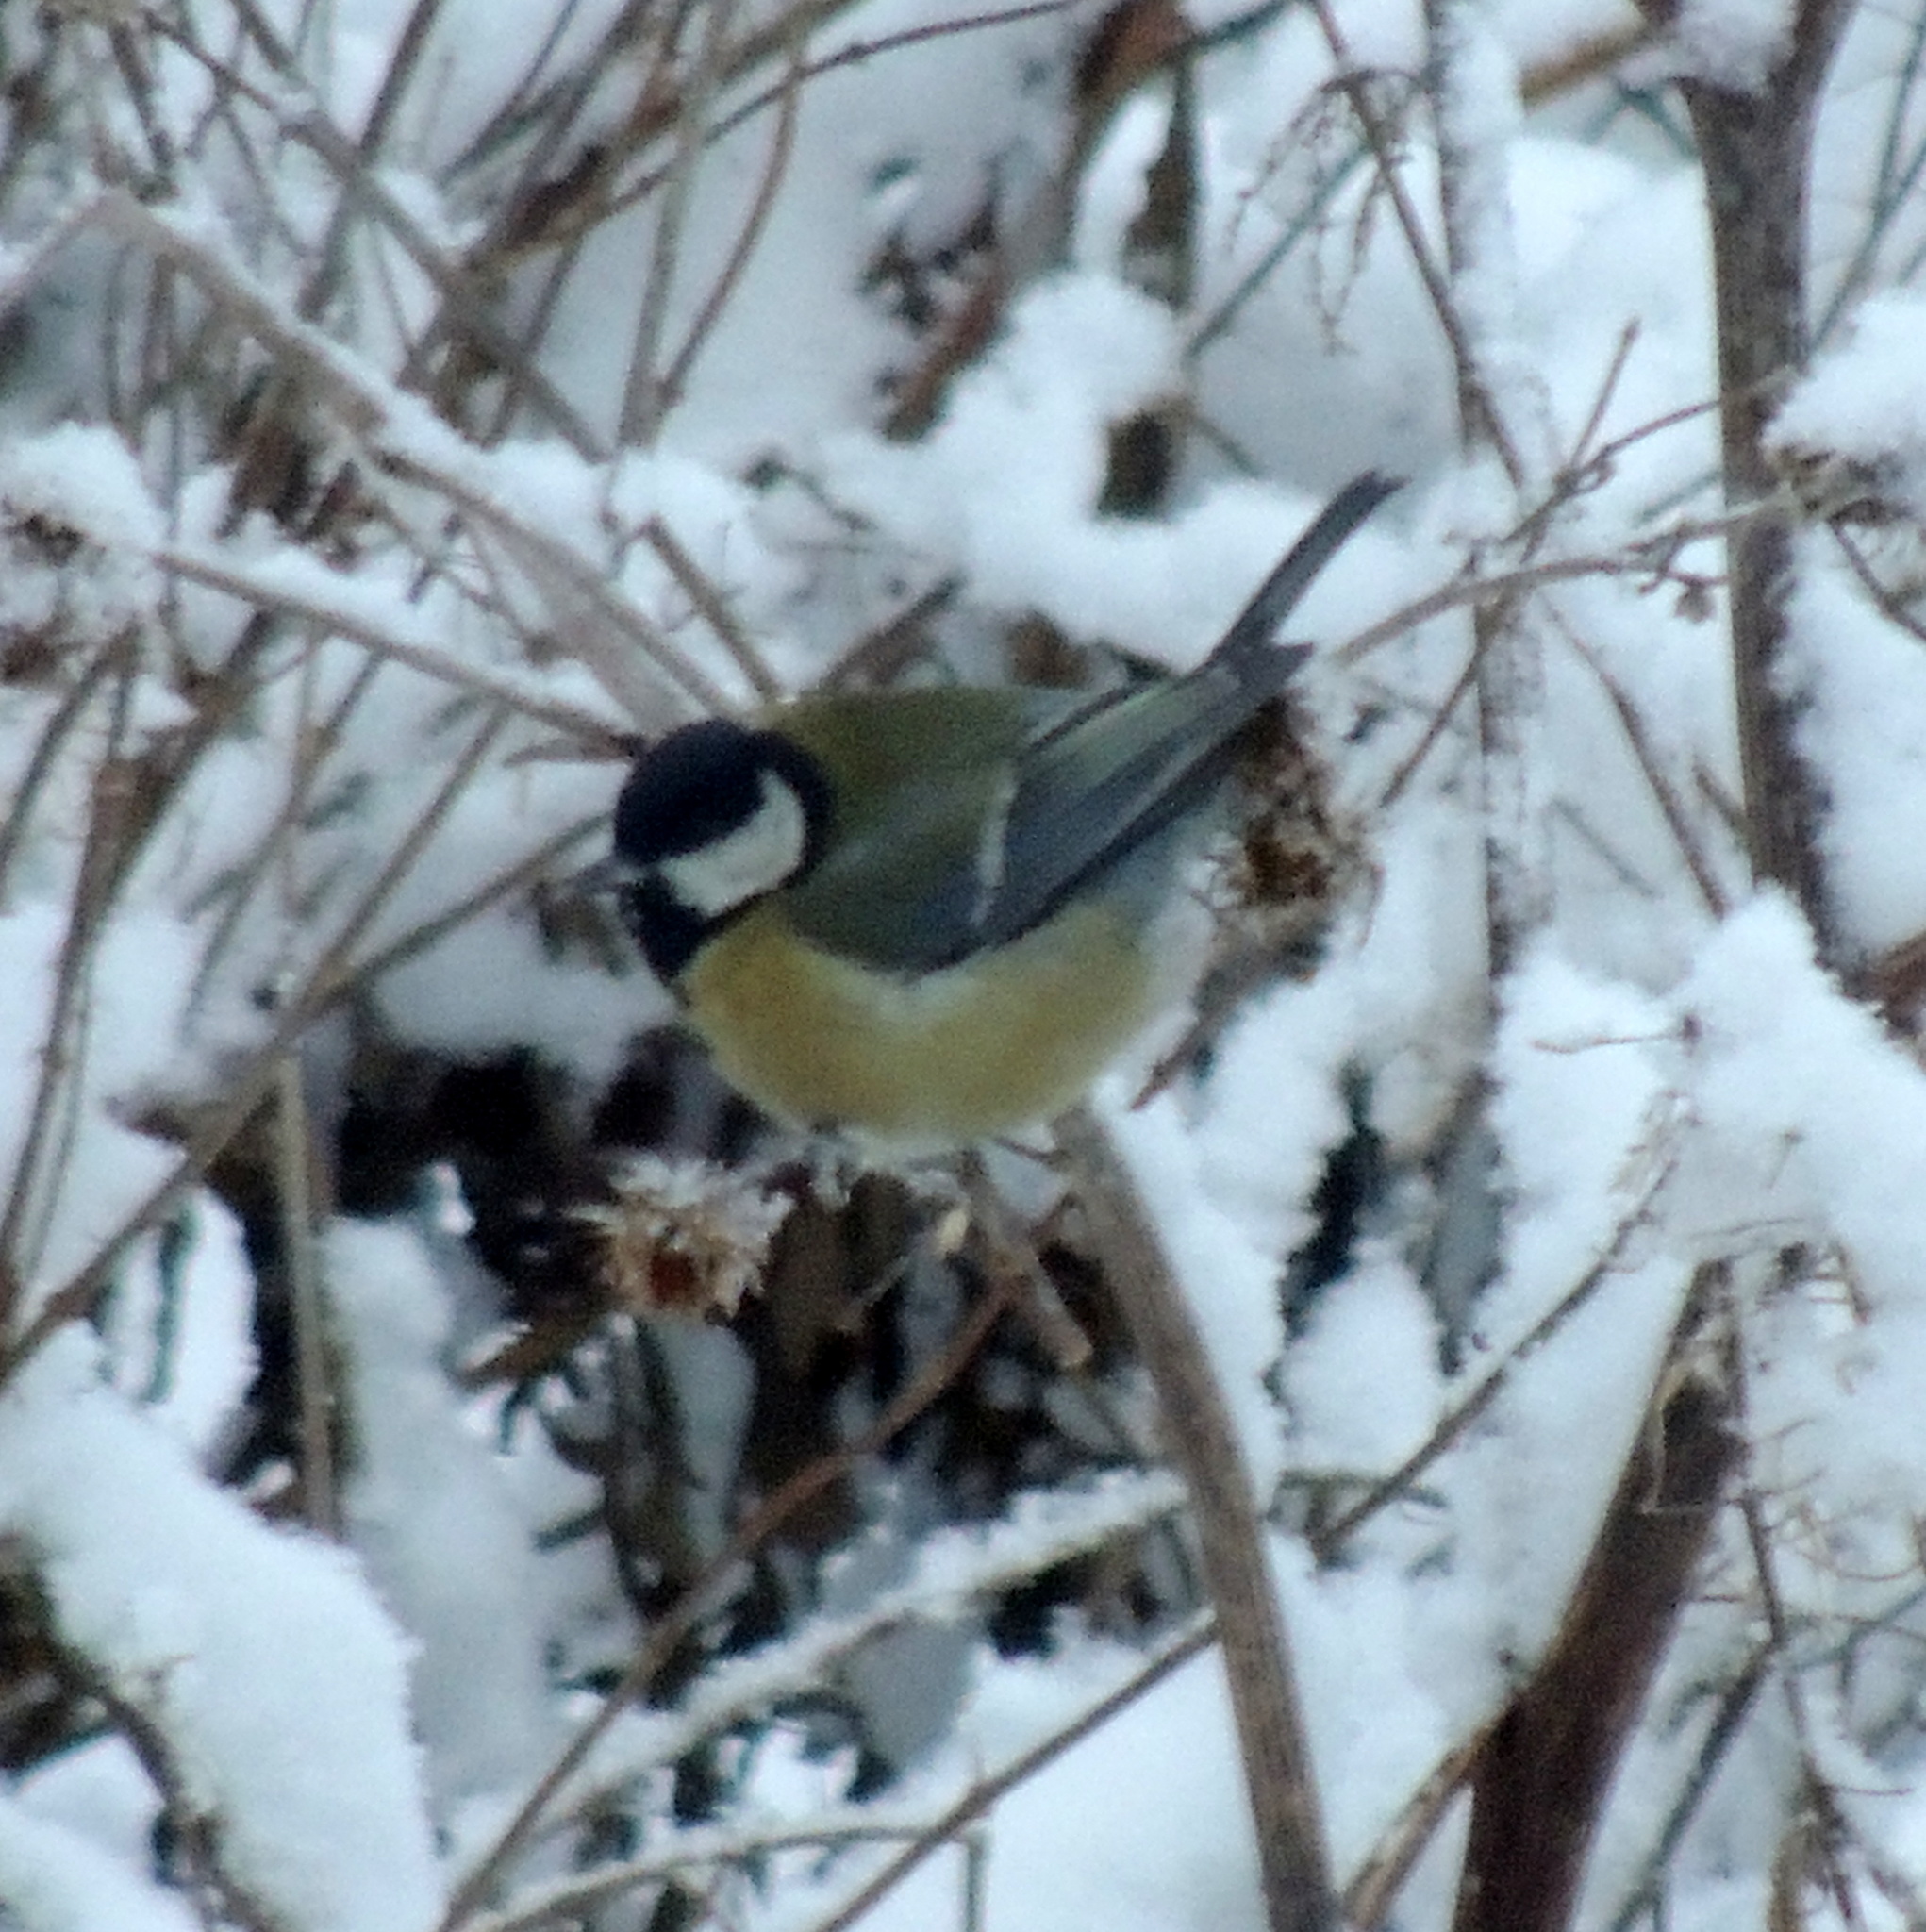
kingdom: Animalia
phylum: Chordata
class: Aves
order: Passeriformes
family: Paridae
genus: Parus
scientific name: Parus major
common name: Great tit
